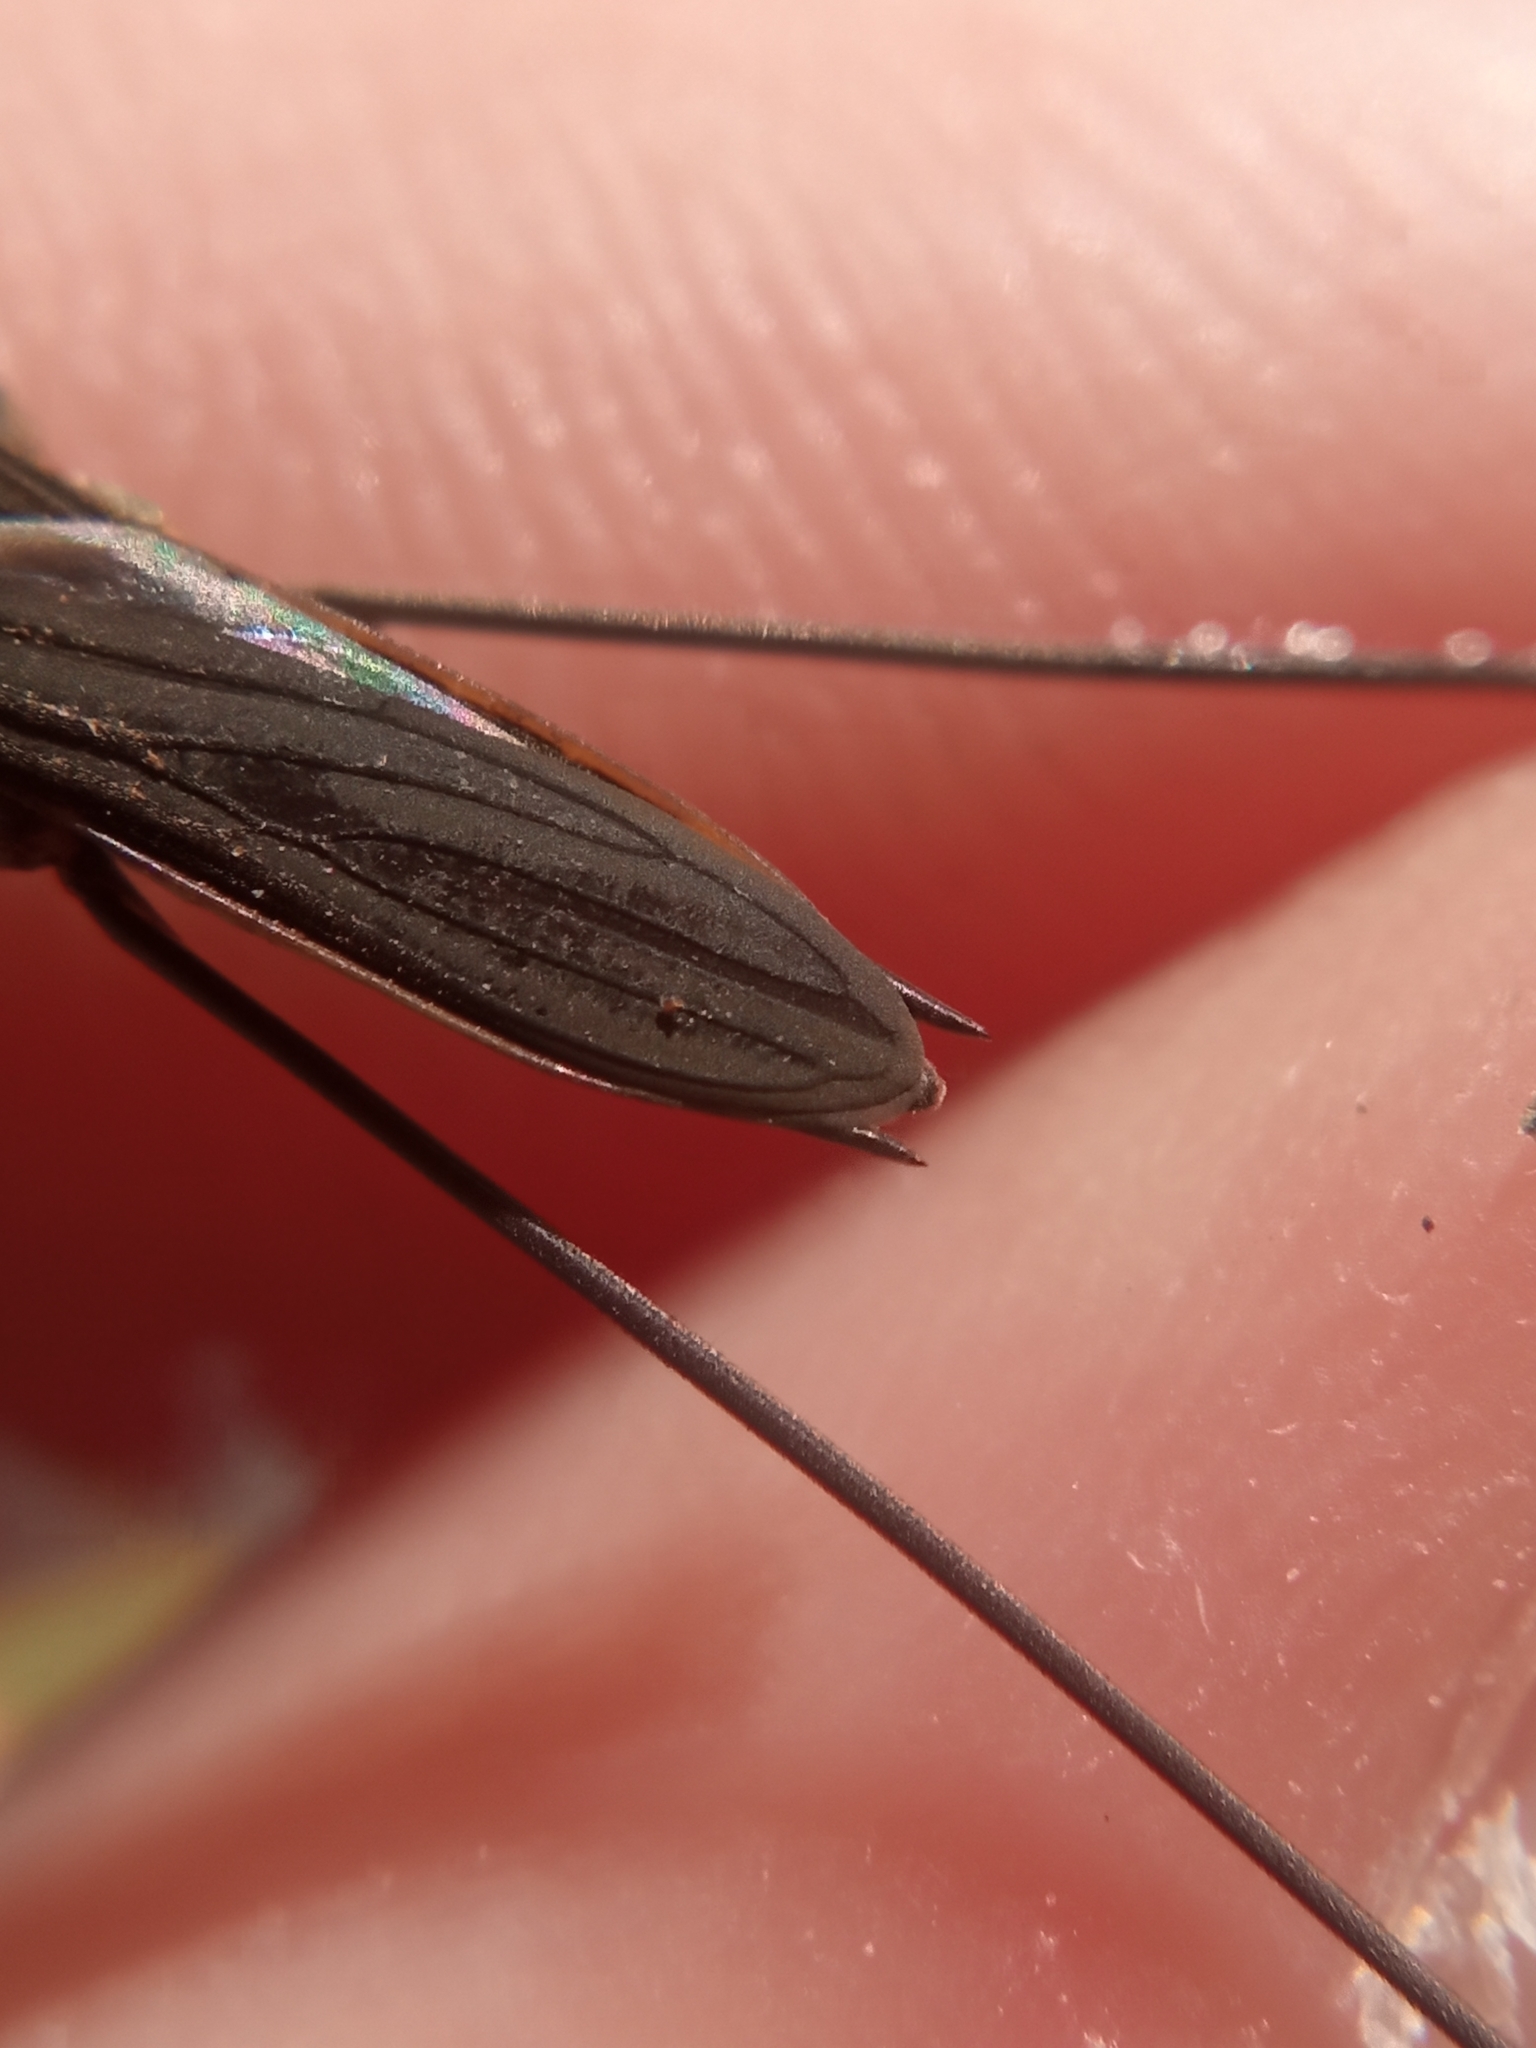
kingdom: Animalia
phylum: Arthropoda
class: Insecta
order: Hemiptera
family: Gerridae
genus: Aquarius
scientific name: Aquarius paludum
